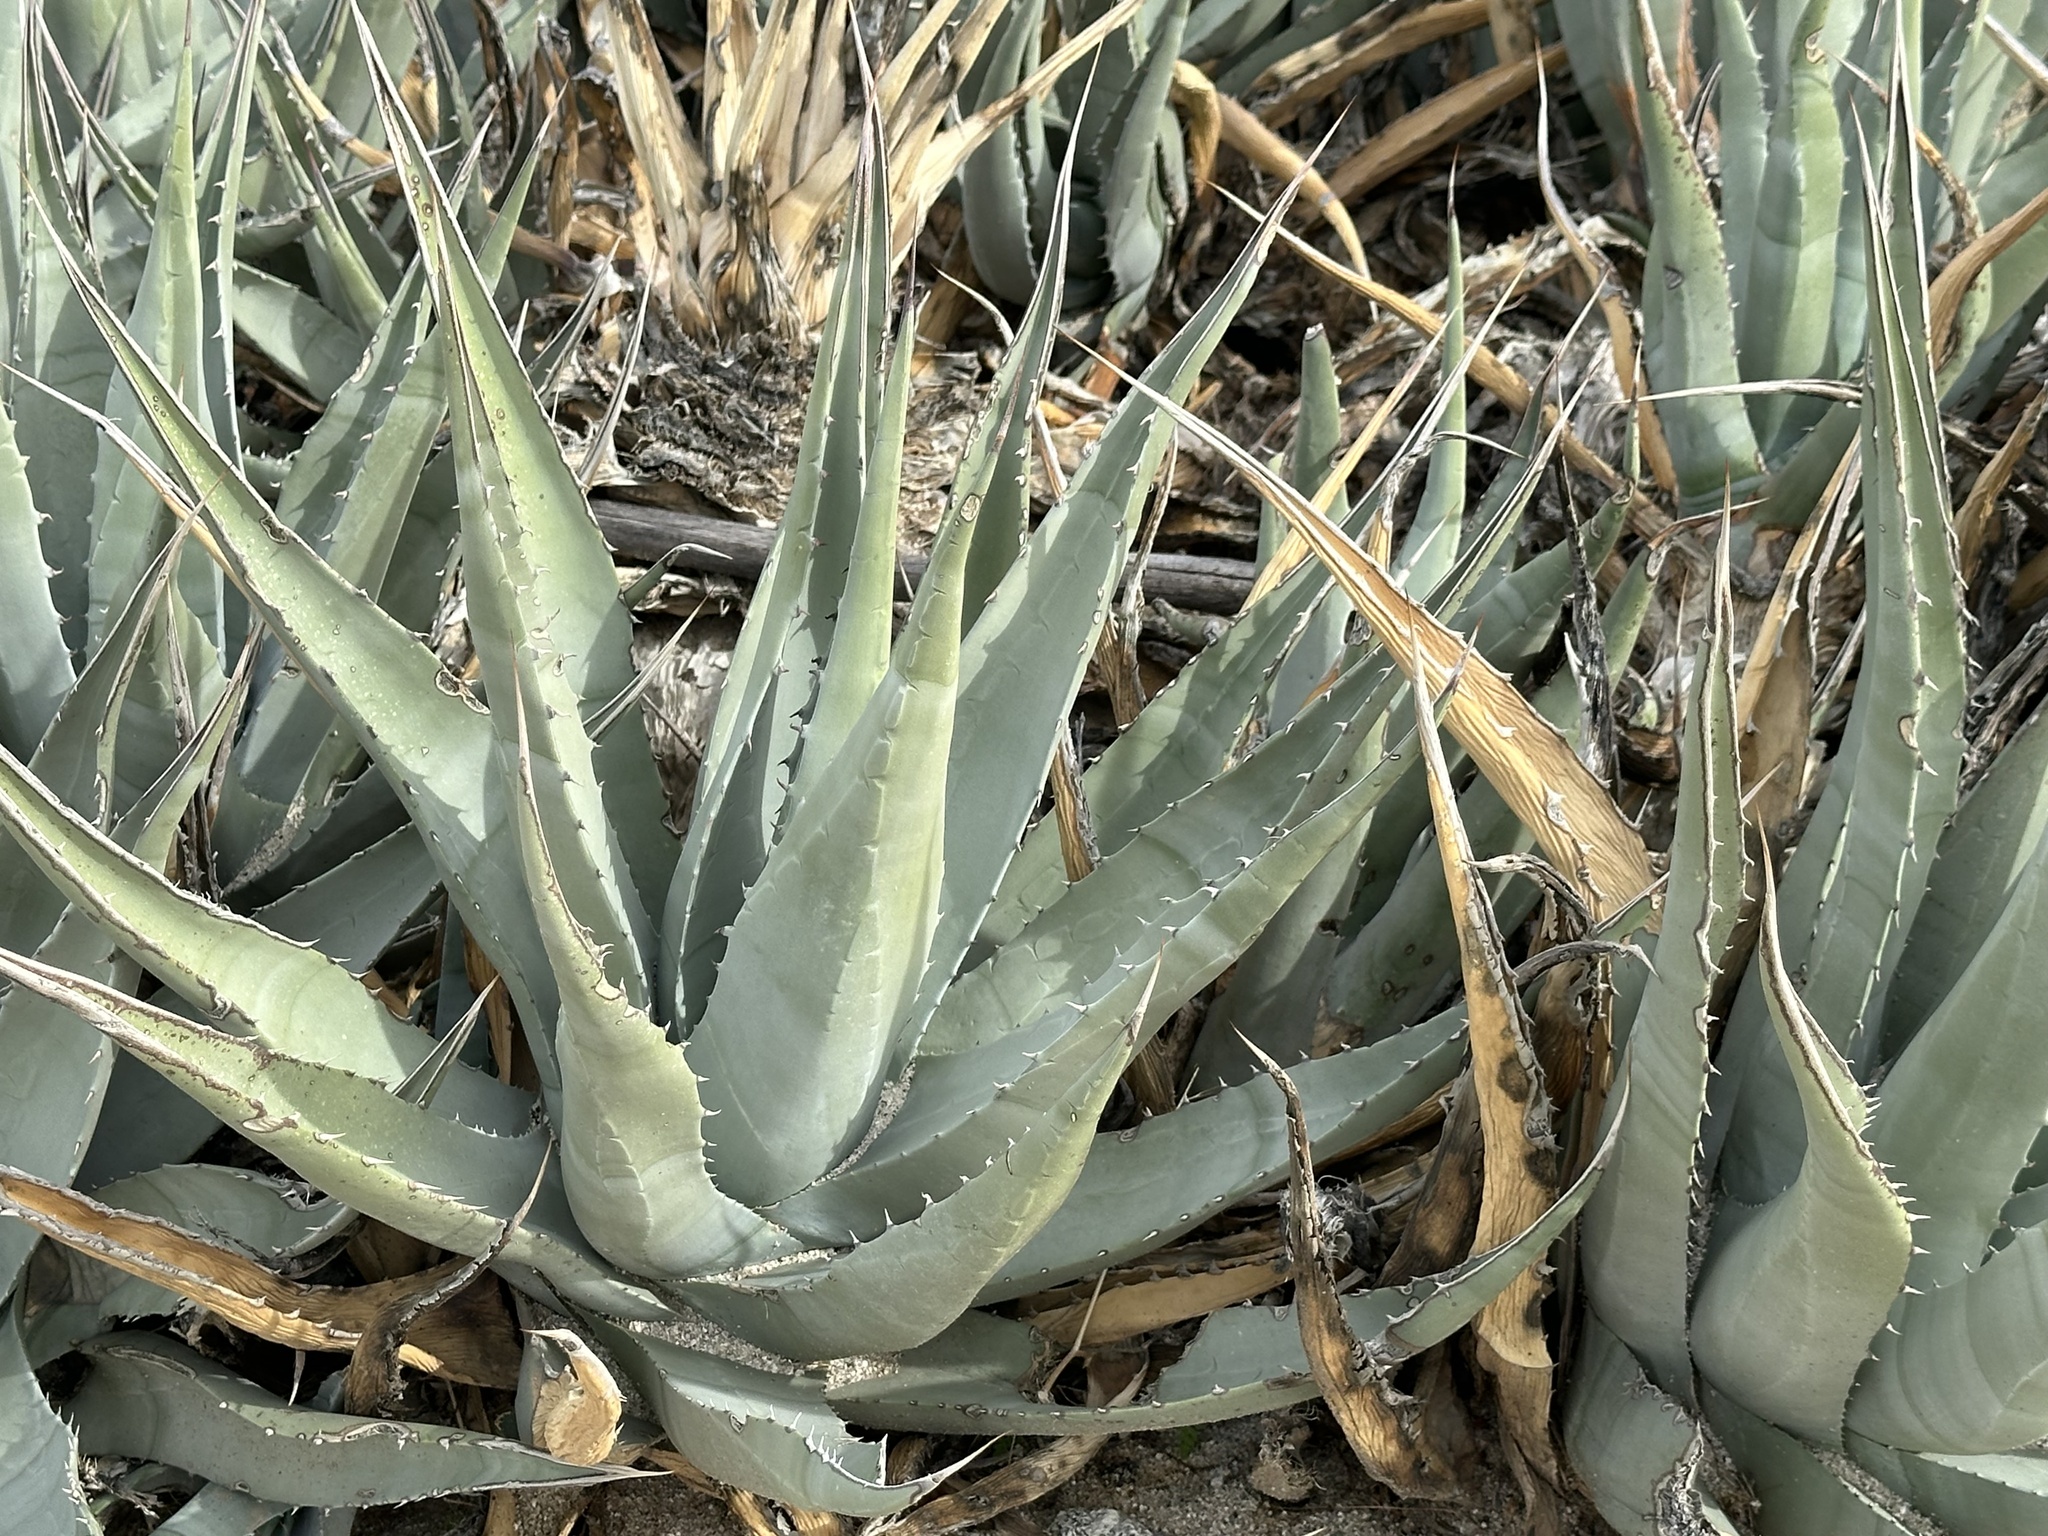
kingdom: Plantae
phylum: Tracheophyta
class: Liliopsida
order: Asparagales
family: Asparagaceae
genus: Agave
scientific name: Agave deserti
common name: Desert agave
